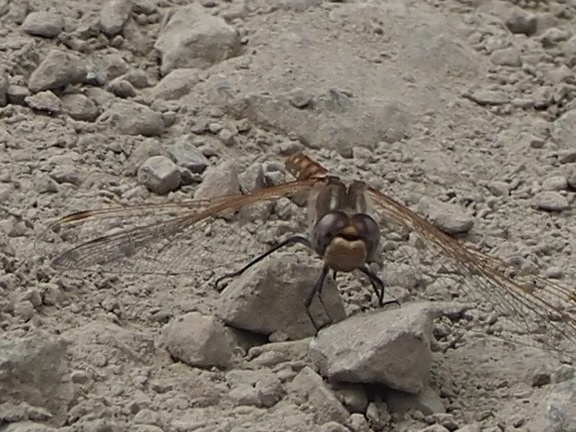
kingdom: Animalia
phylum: Arthropoda
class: Insecta
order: Odonata
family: Libellulidae
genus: Sympetrum
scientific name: Sympetrum corruptum
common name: Variegated meadowhawk
